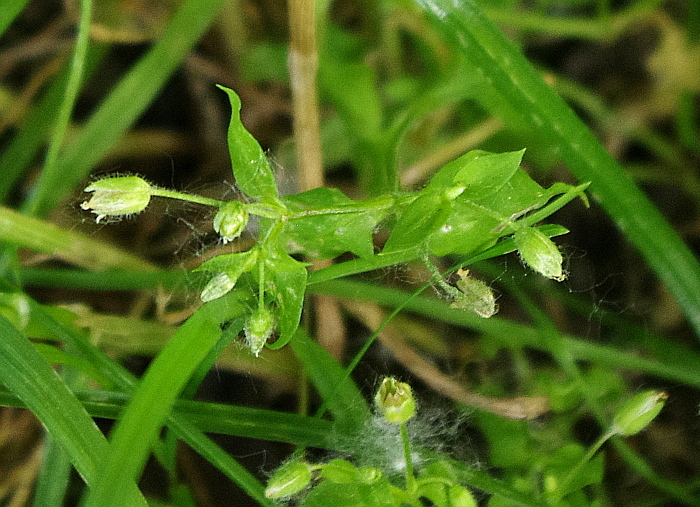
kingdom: Plantae
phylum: Tracheophyta
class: Magnoliopsida
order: Caryophyllales
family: Caryophyllaceae
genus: Stellaria
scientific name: Stellaria aquatica
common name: Water chickweed
